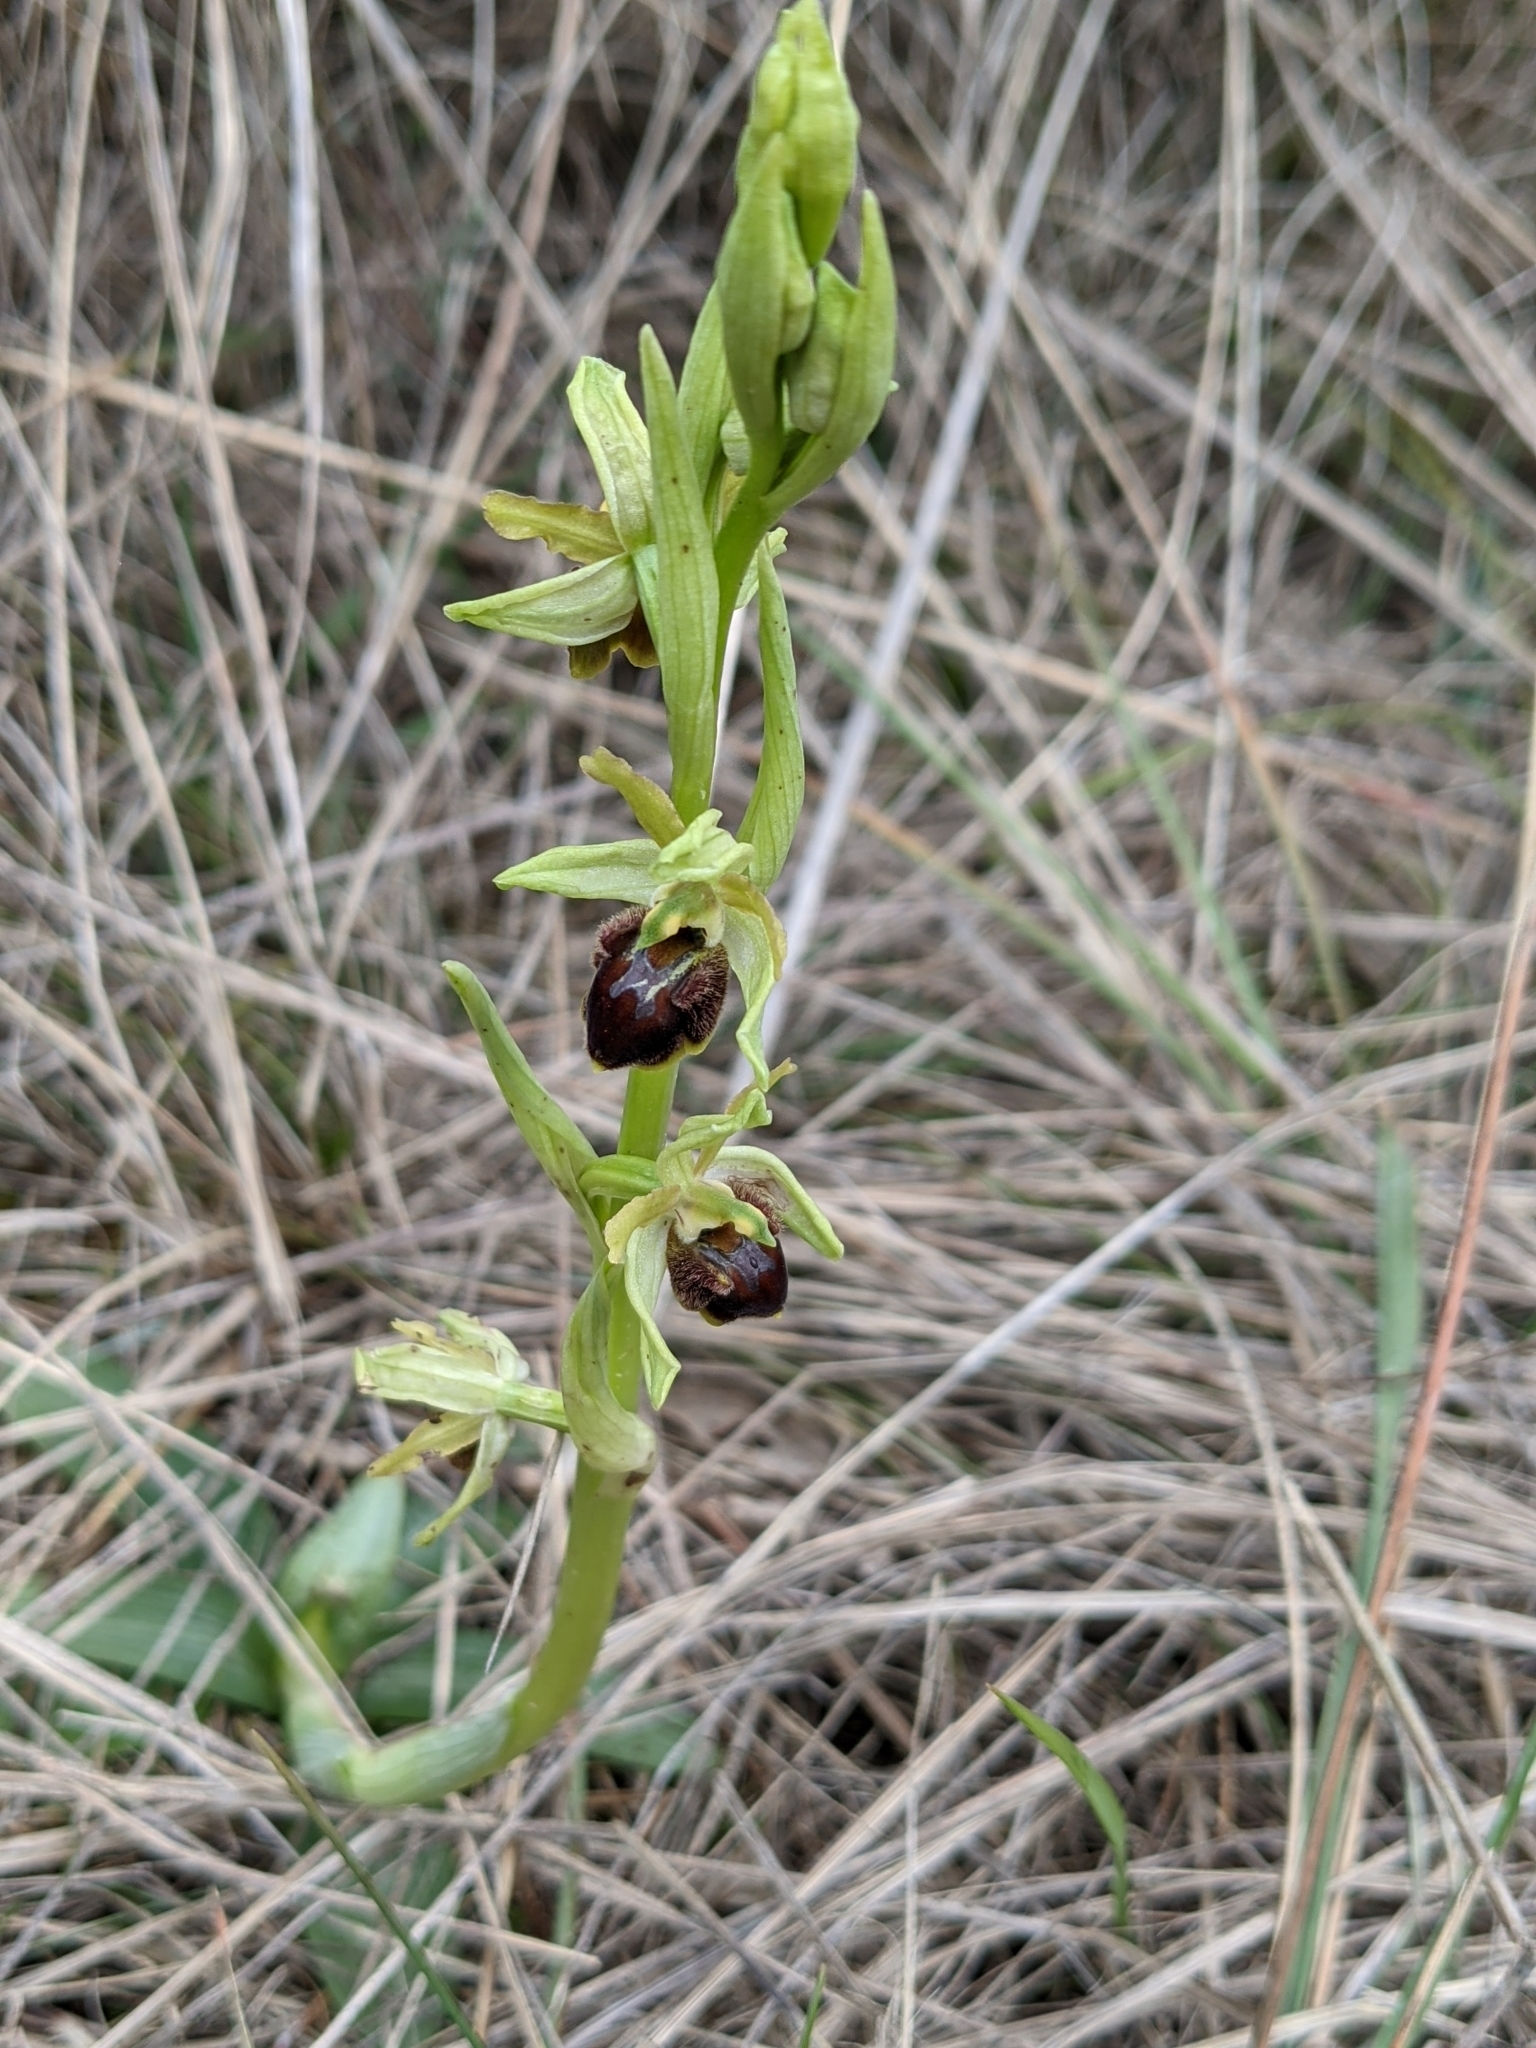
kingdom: Plantae
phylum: Tracheophyta
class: Liliopsida
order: Asparagales
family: Orchidaceae
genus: Ophrys
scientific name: Ophrys sphegodes
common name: Early spider-orchid
